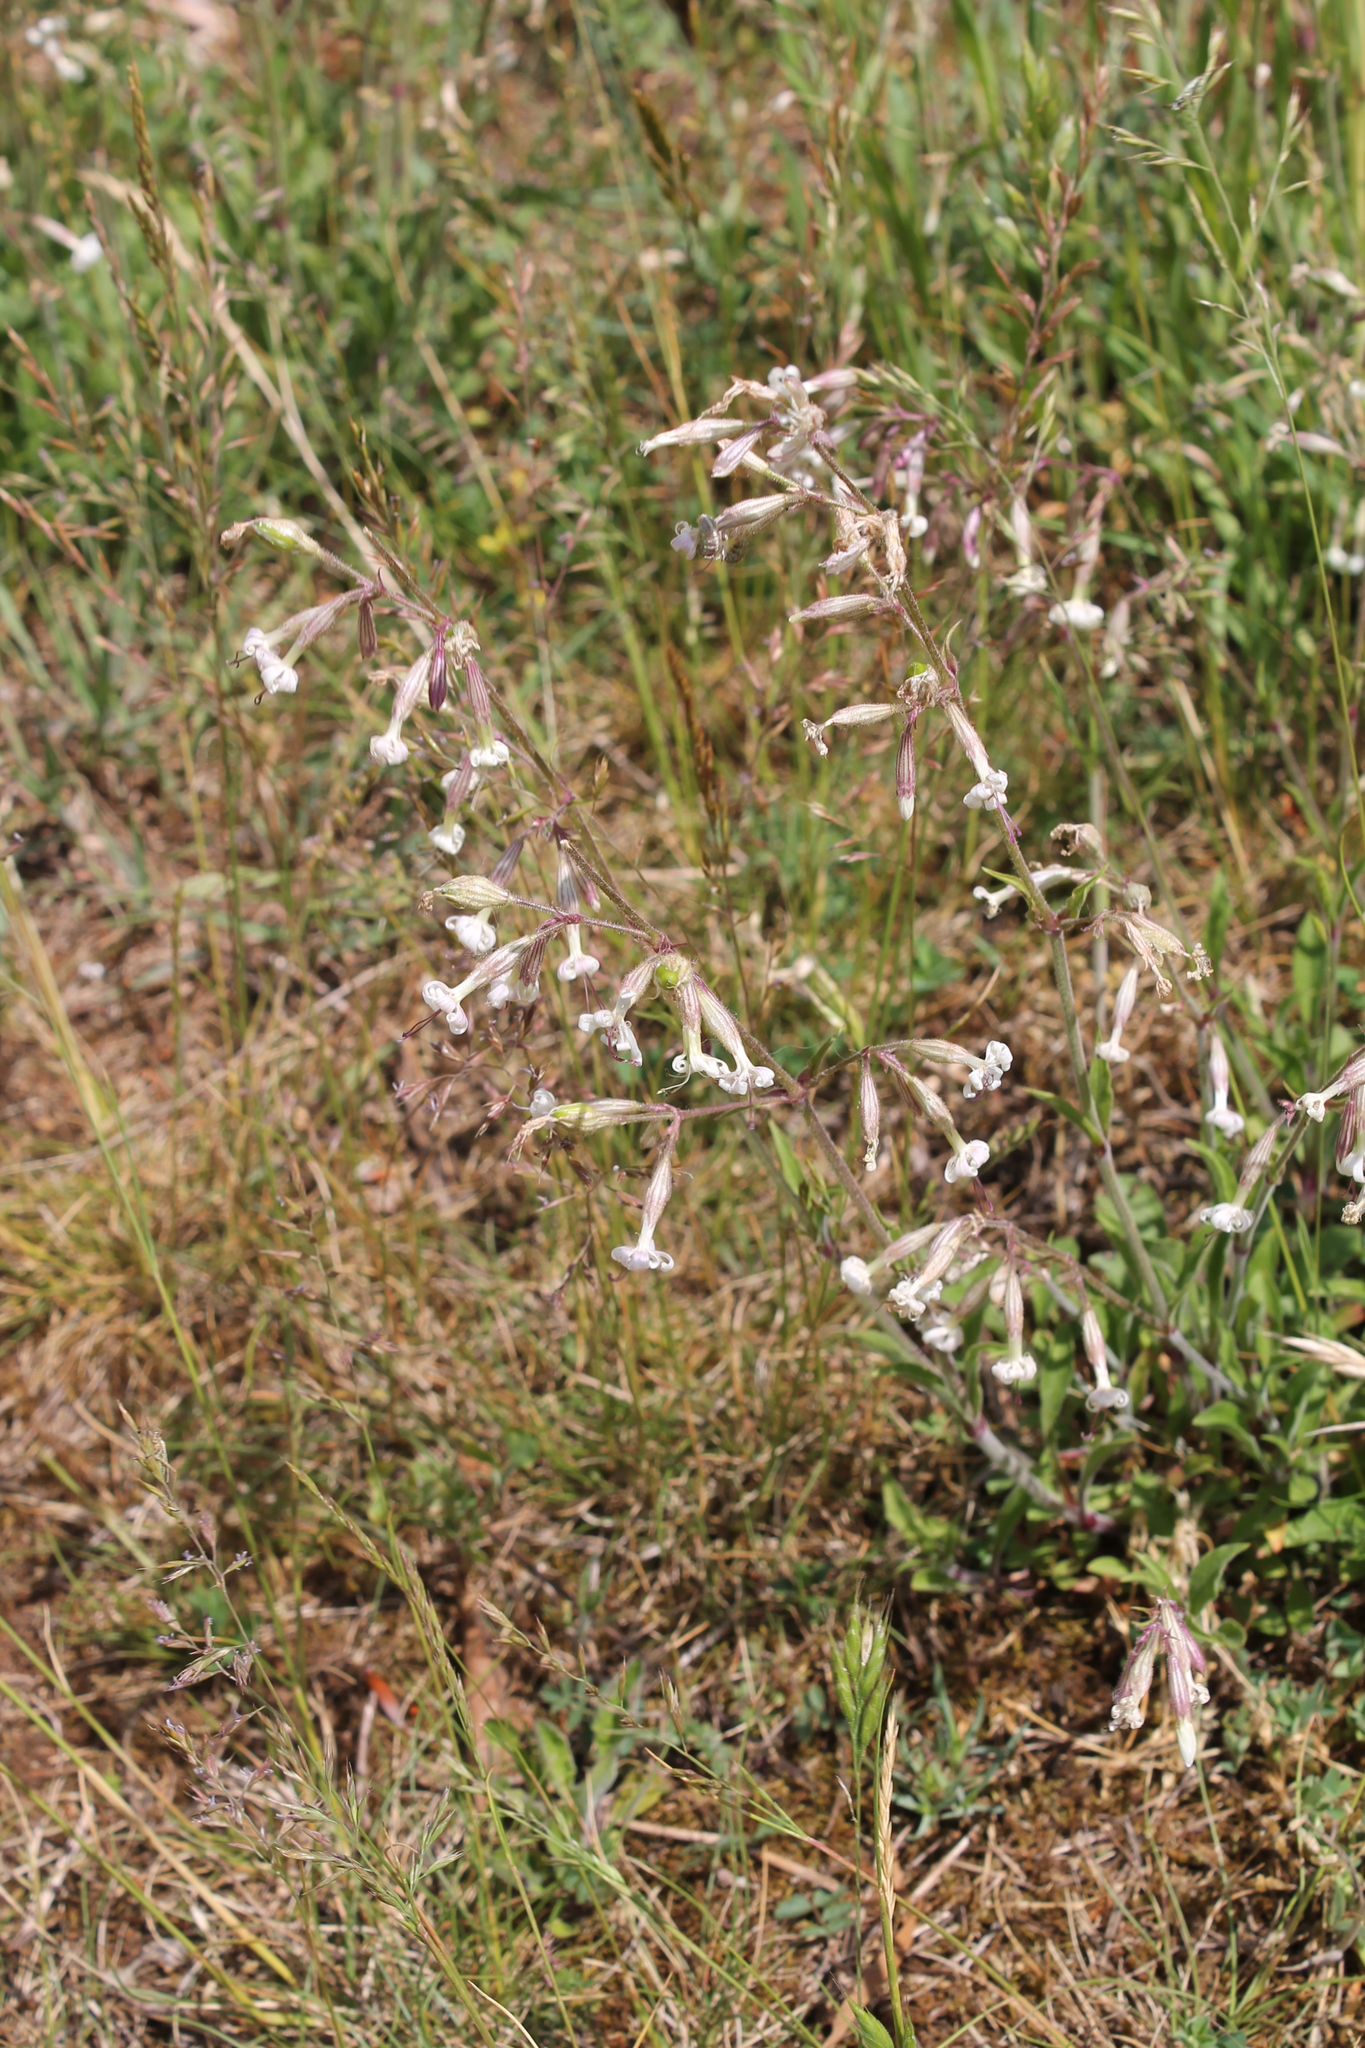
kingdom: Plantae
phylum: Tracheophyta
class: Magnoliopsida
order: Caryophyllales
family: Caryophyllaceae
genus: Silene
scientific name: Silene nutans
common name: Nottingham catchfly
